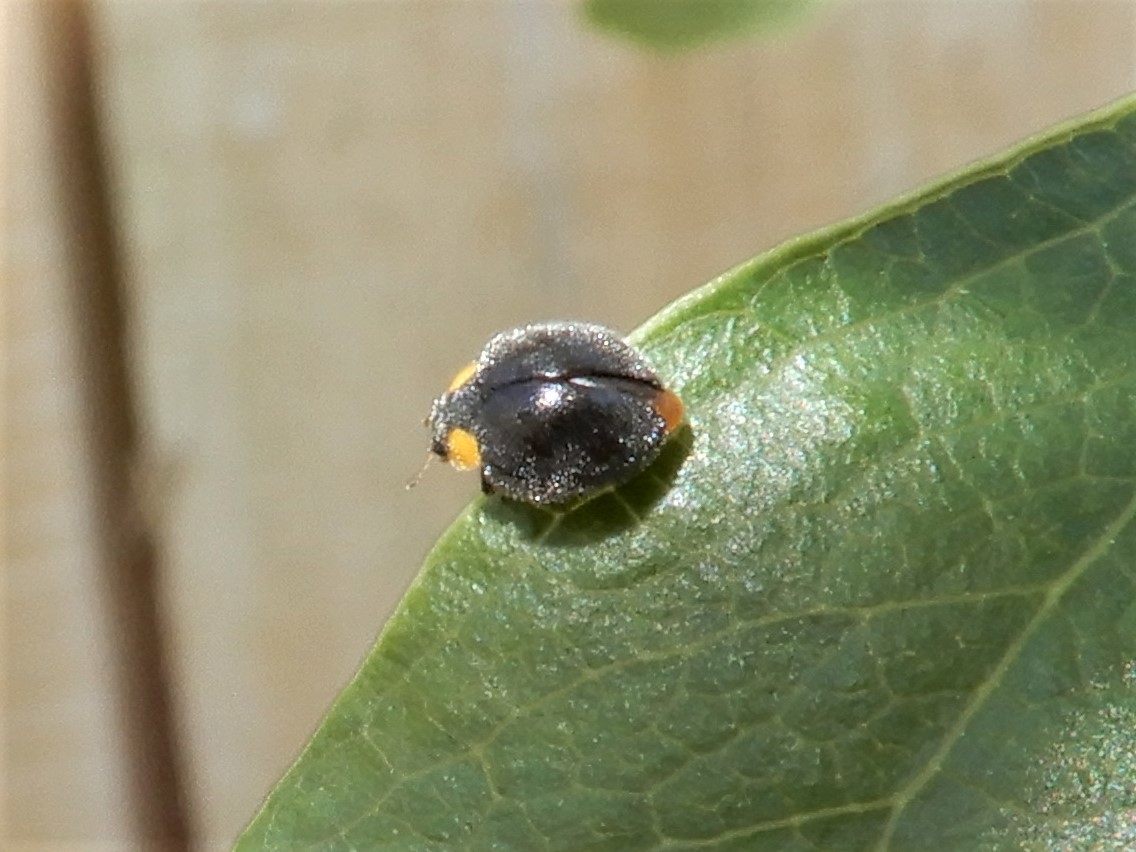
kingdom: Animalia
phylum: Arthropoda
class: Insecta
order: Coleoptera
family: Coccinellidae
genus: Scymnodes
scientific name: Scymnodes lividigaster
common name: Yellowshouldered lady beetle
